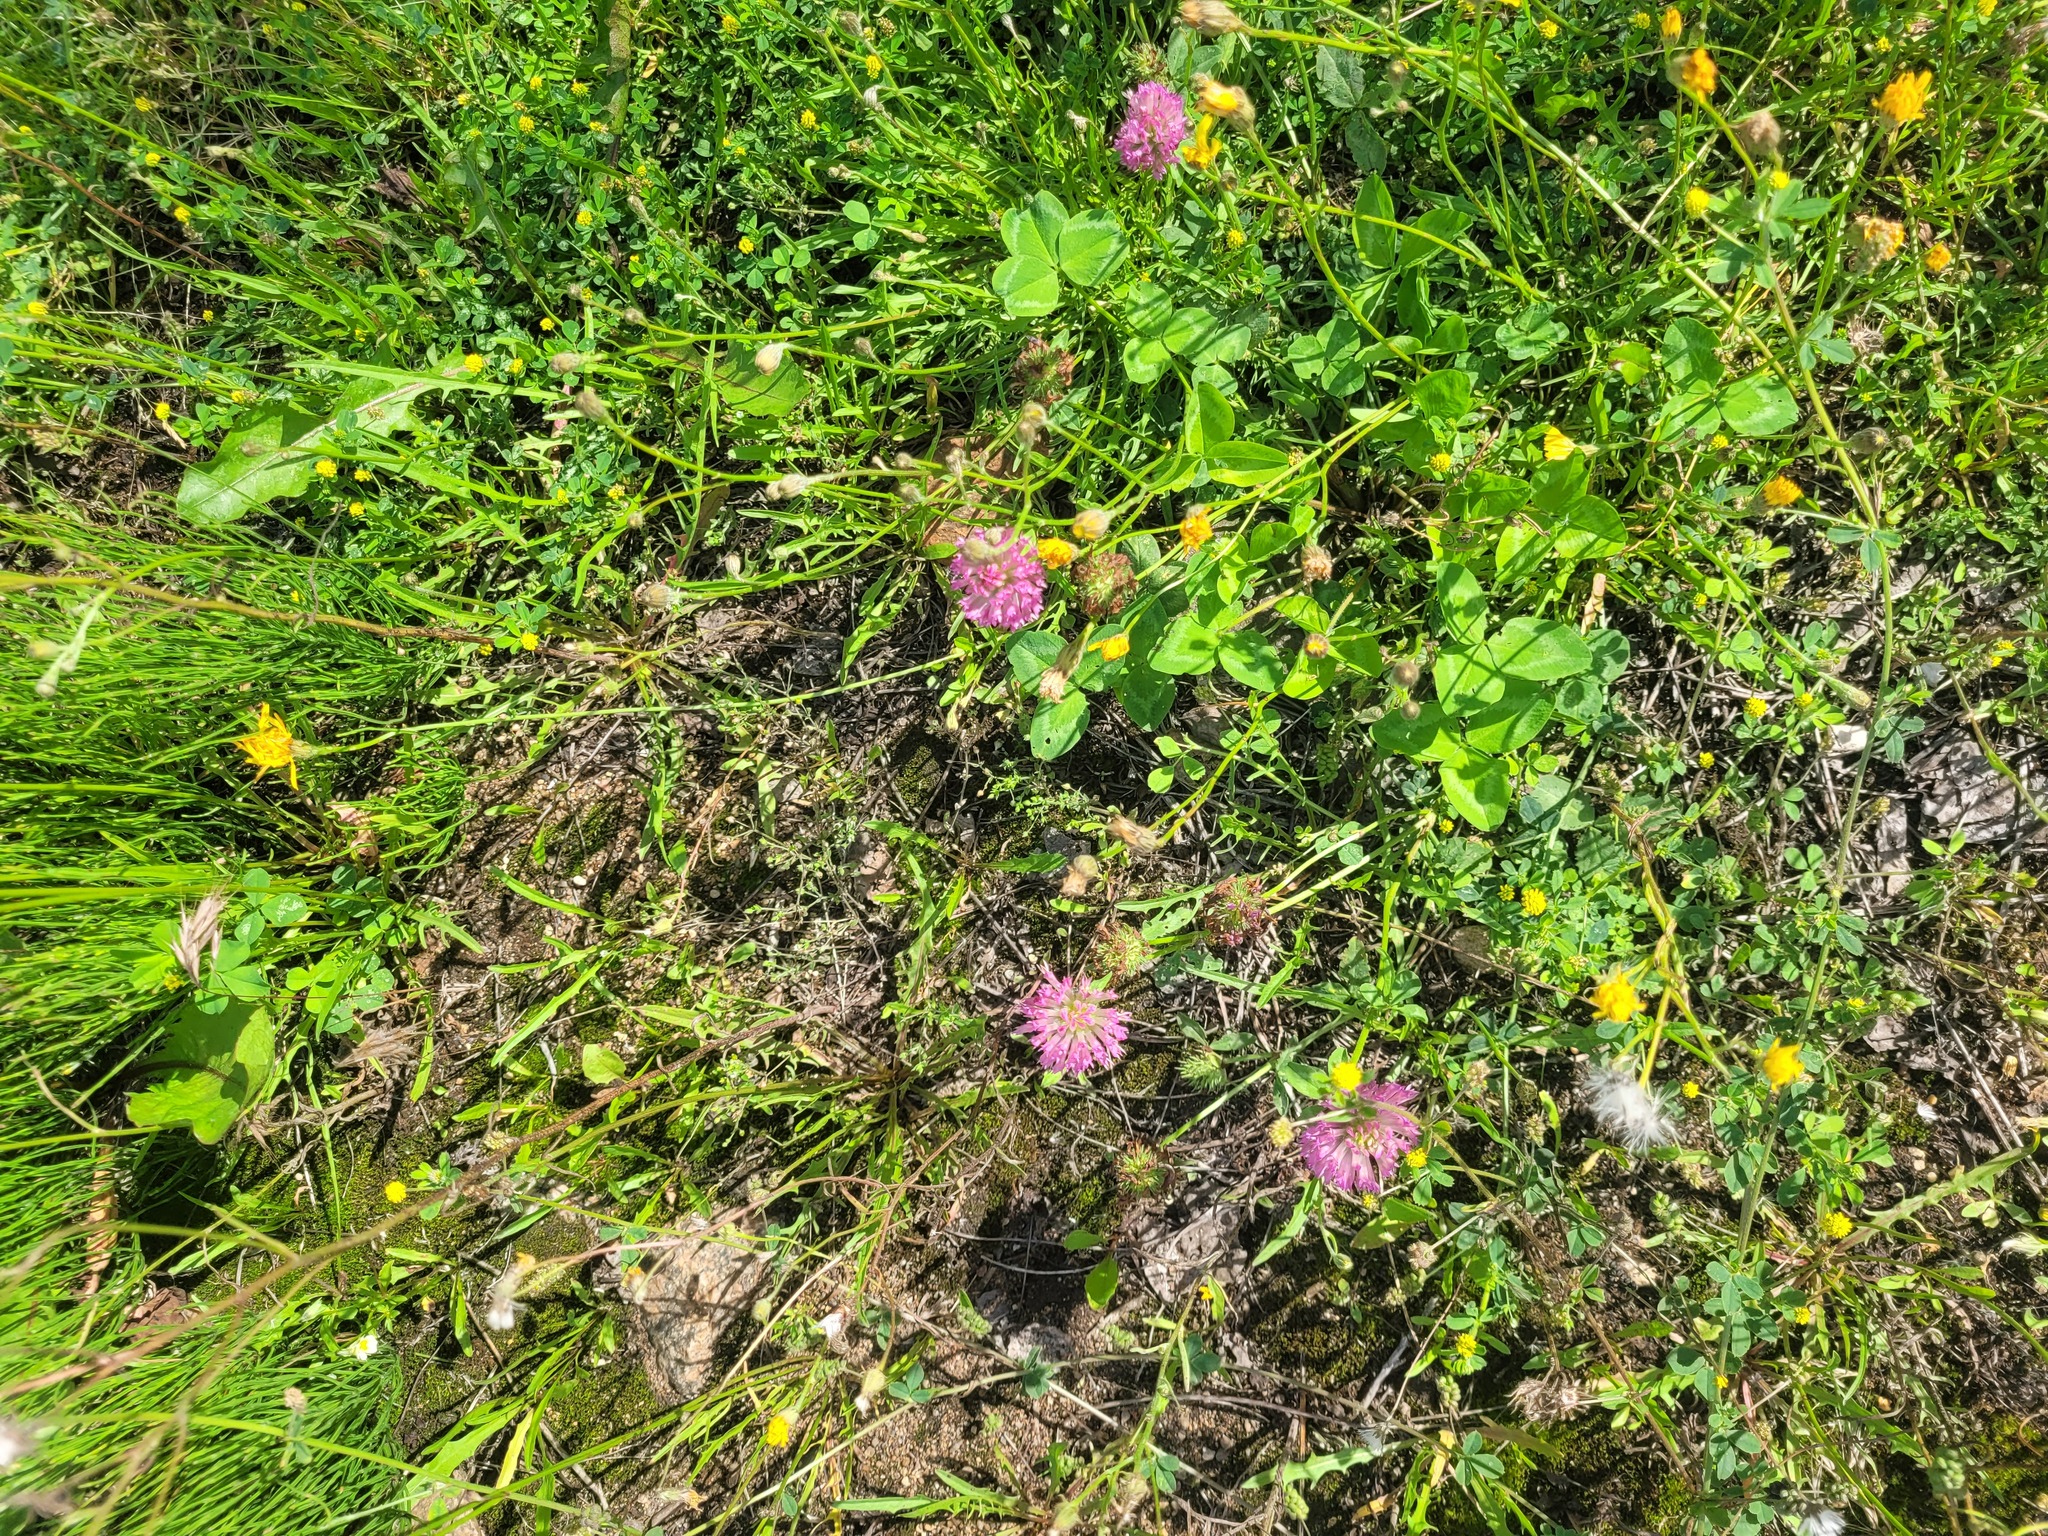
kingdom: Plantae
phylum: Tracheophyta
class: Magnoliopsida
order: Fabales
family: Fabaceae
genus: Trifolium
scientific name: Trifolium pratense
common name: Red clover
